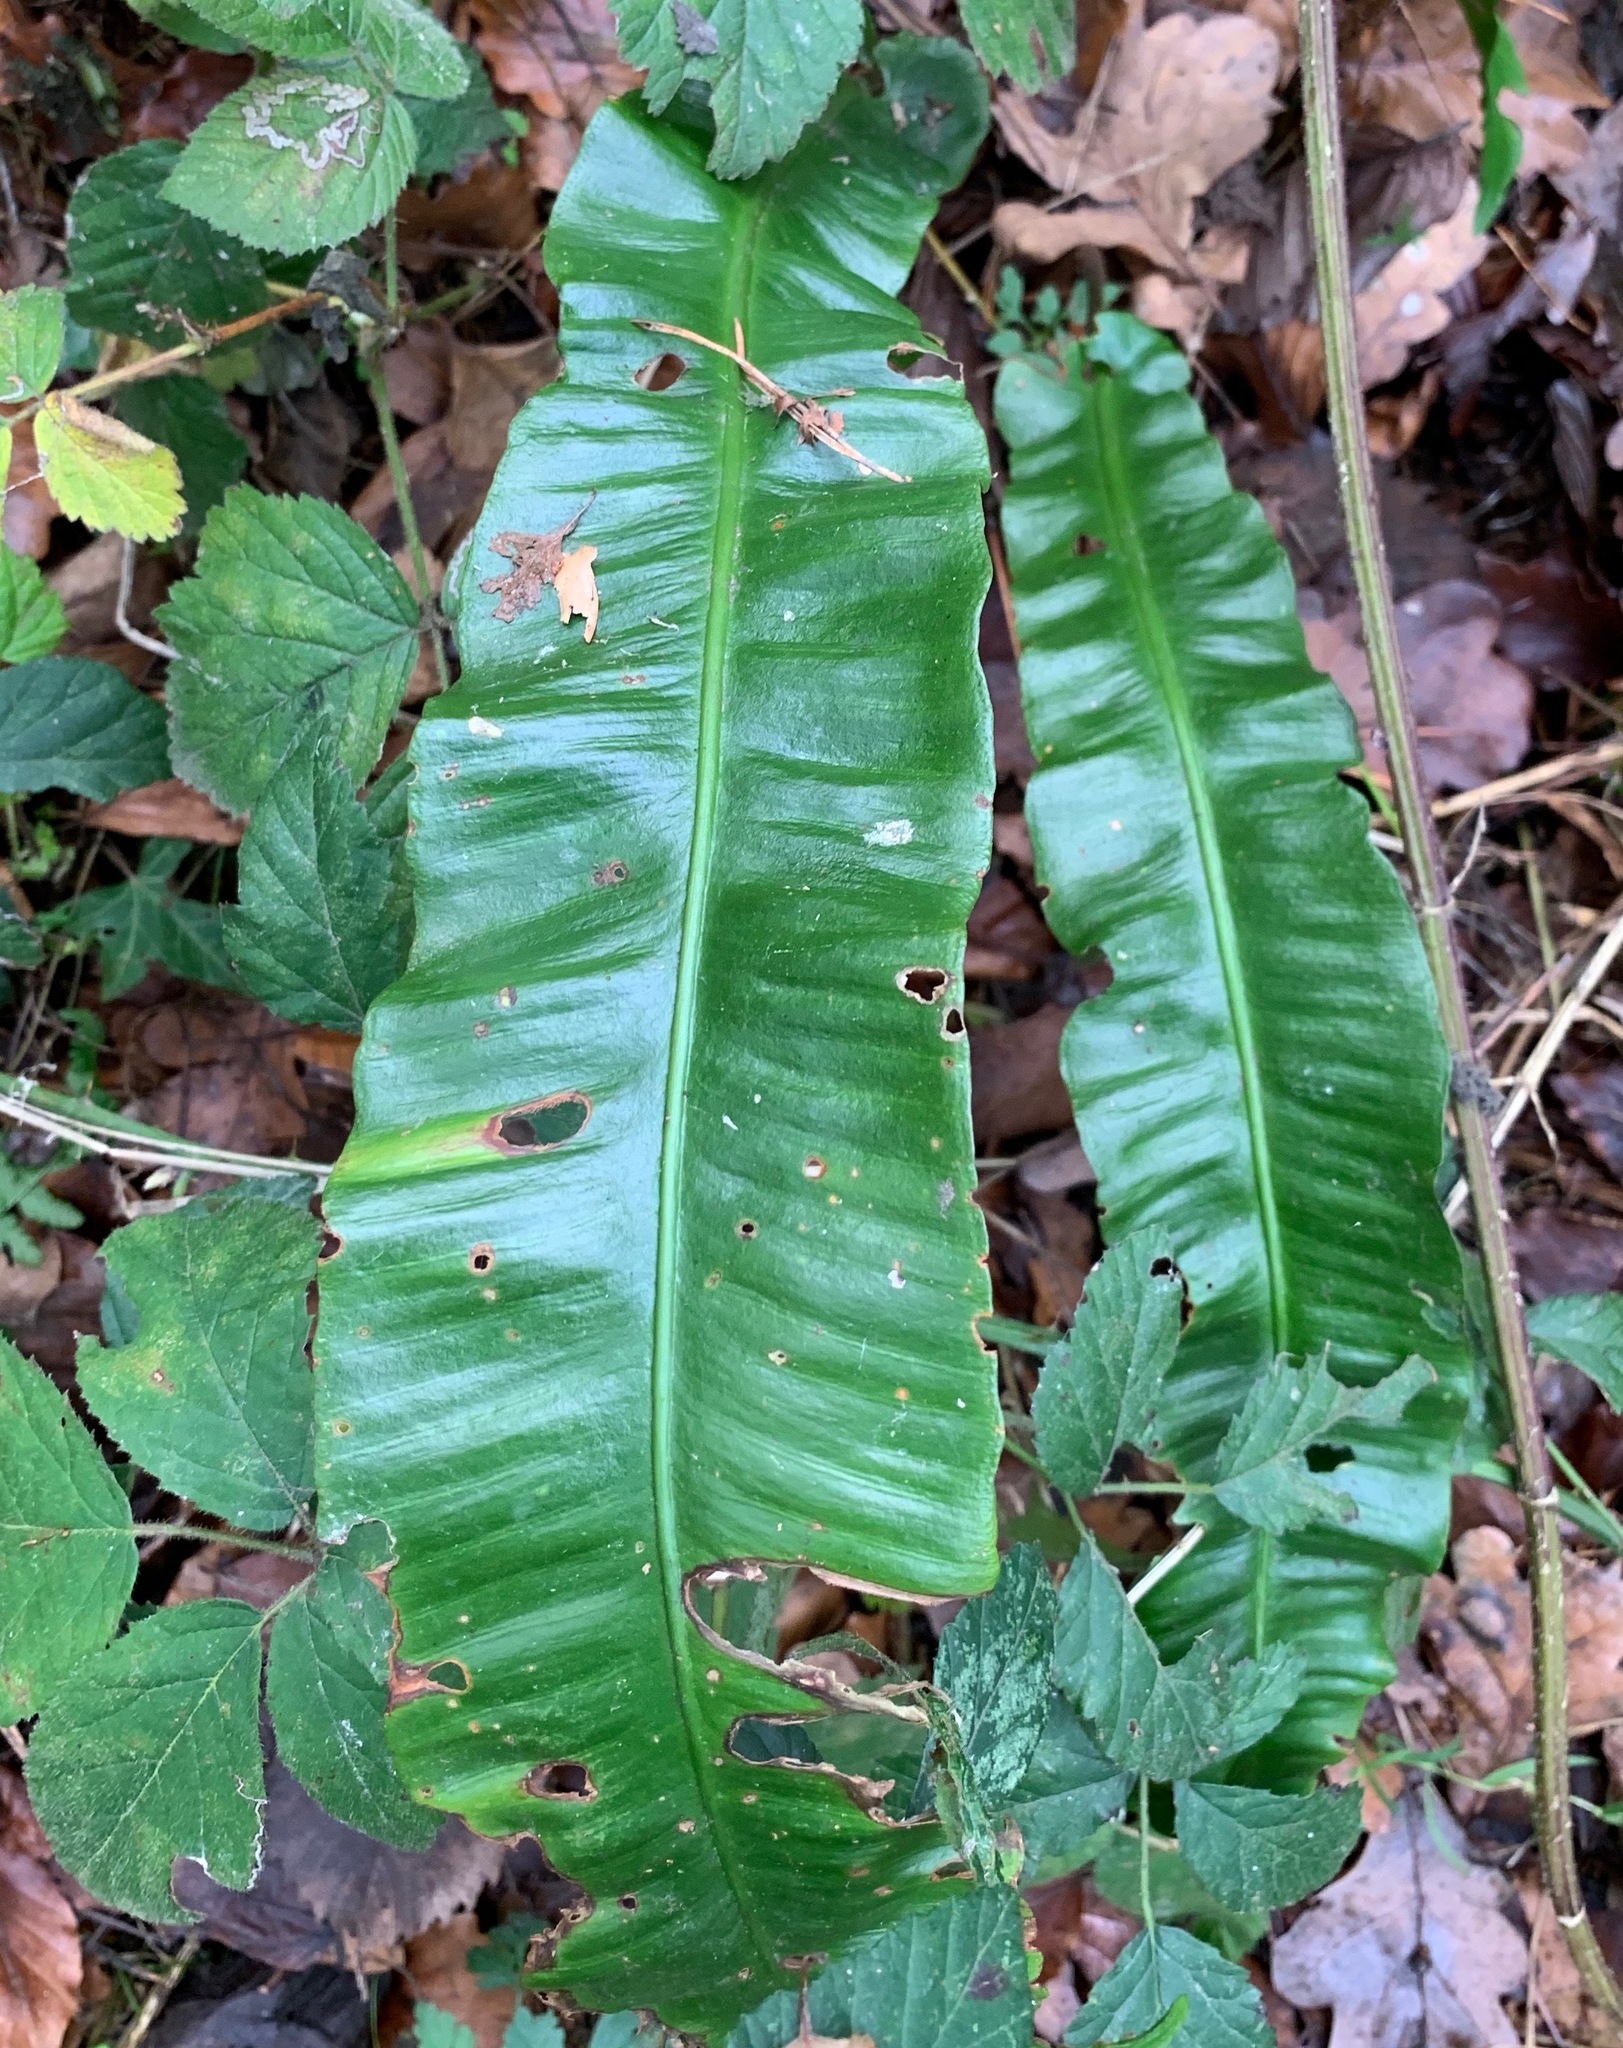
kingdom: Plantae
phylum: Tracheophyta
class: Polypodiopsida
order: Polypodiales
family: Aspleniaceae
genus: Asplenium
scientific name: Asplenium scolopendrium
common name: Hart's-tongue fern
